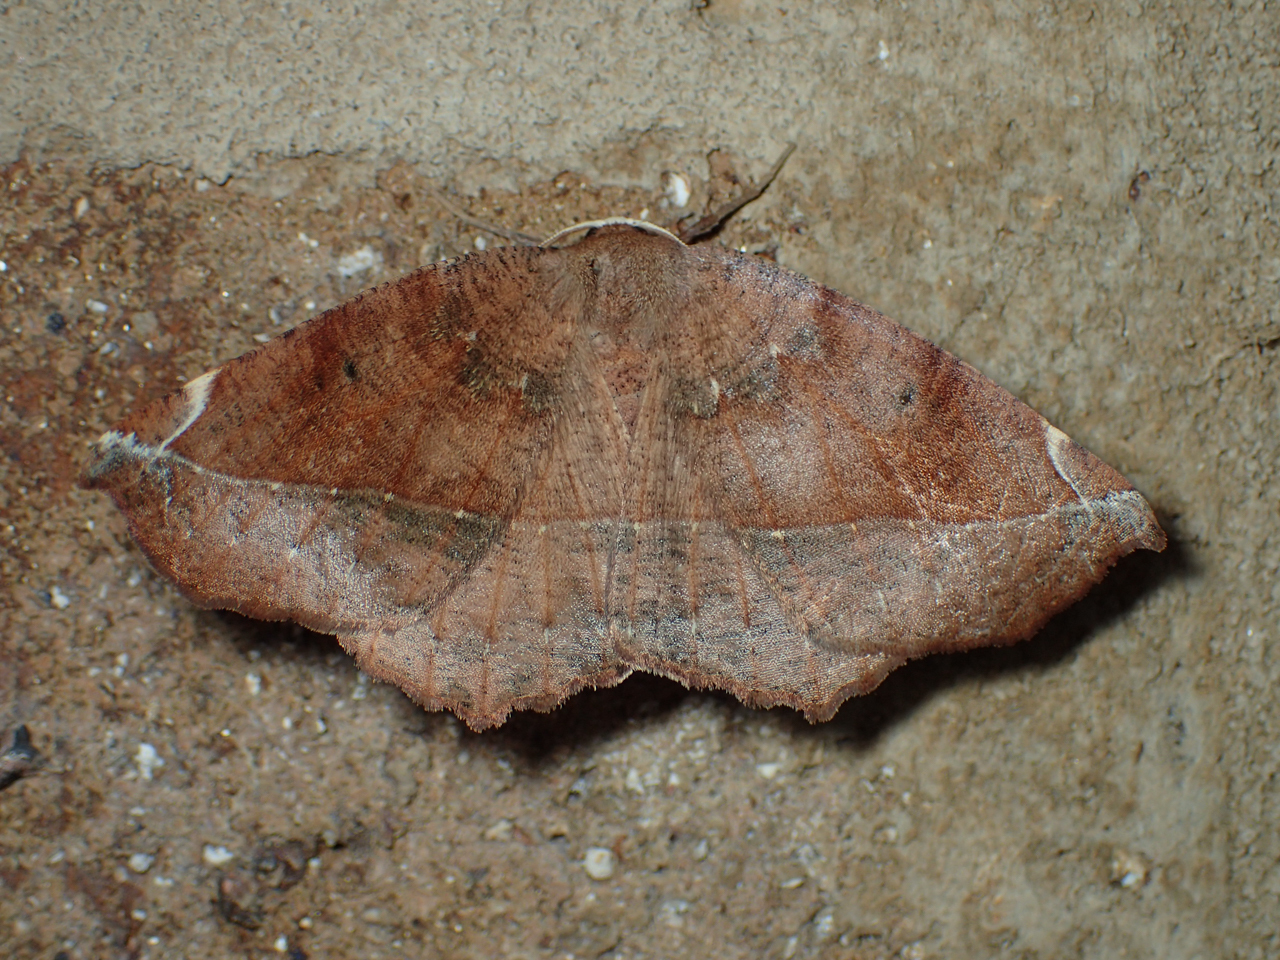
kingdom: Animalia
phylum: Arthropoda
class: Insecta
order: Lepidoptera
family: Geometridae
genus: Eutrapela
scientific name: Eutrapela clemataria
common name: Curved-toothed geometer
